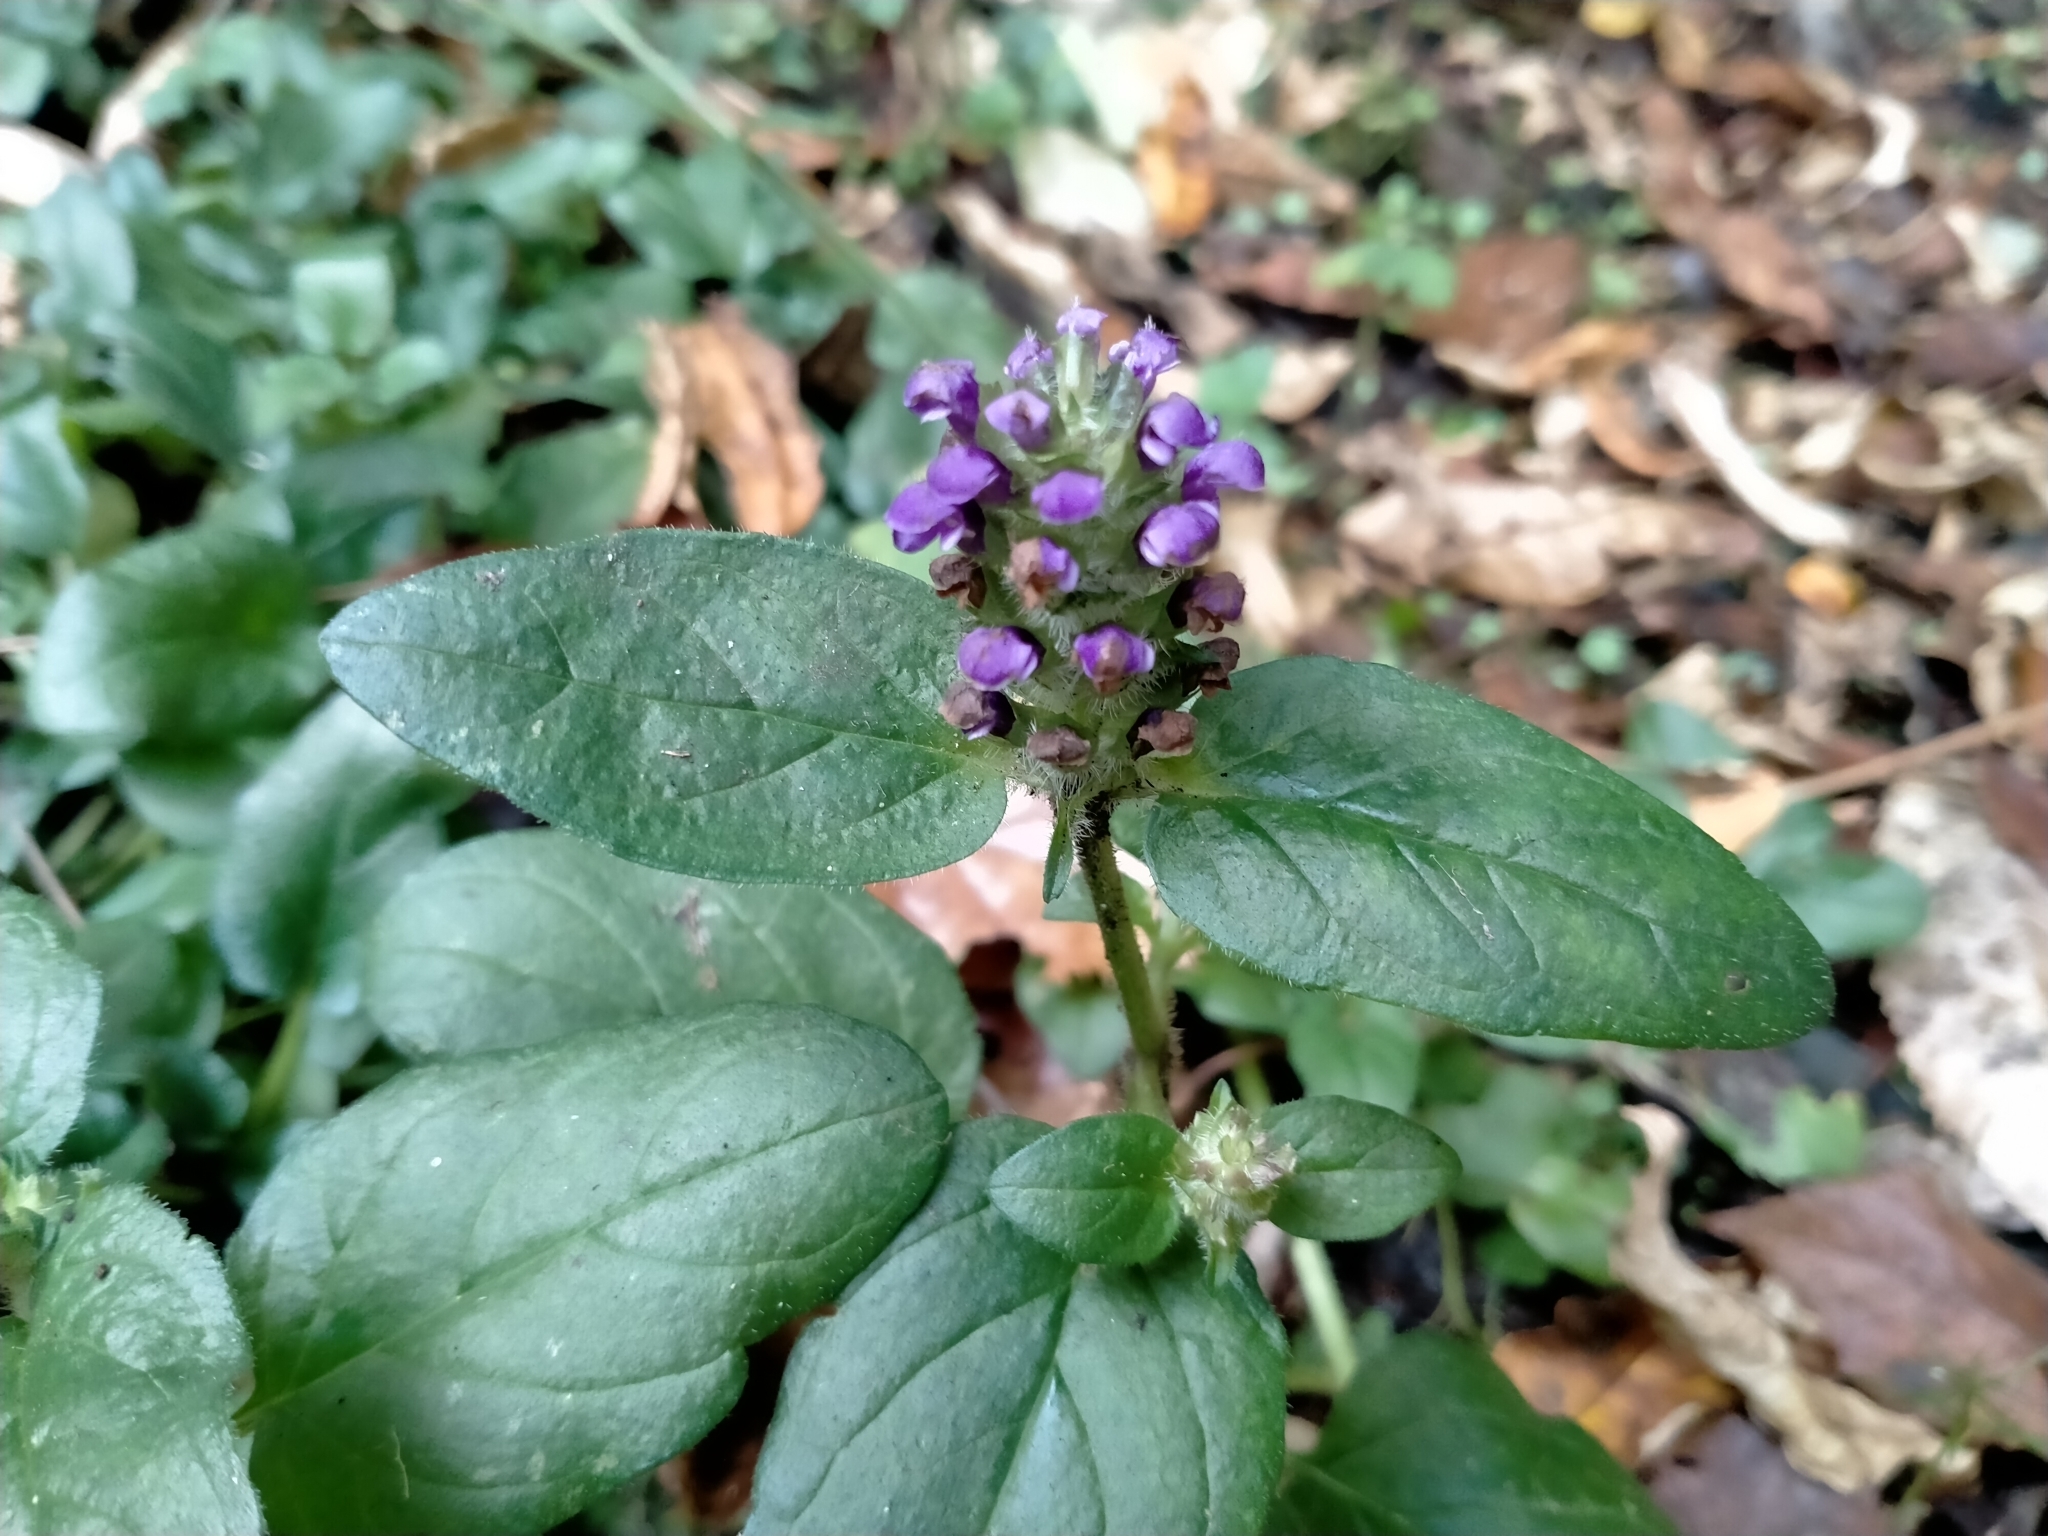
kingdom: Plantae
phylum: Tracheophyta
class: Magnoliopsida
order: Lamiales
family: Lamiaceae
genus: Prunella
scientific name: Prunella vulgaris
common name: Heal-all
